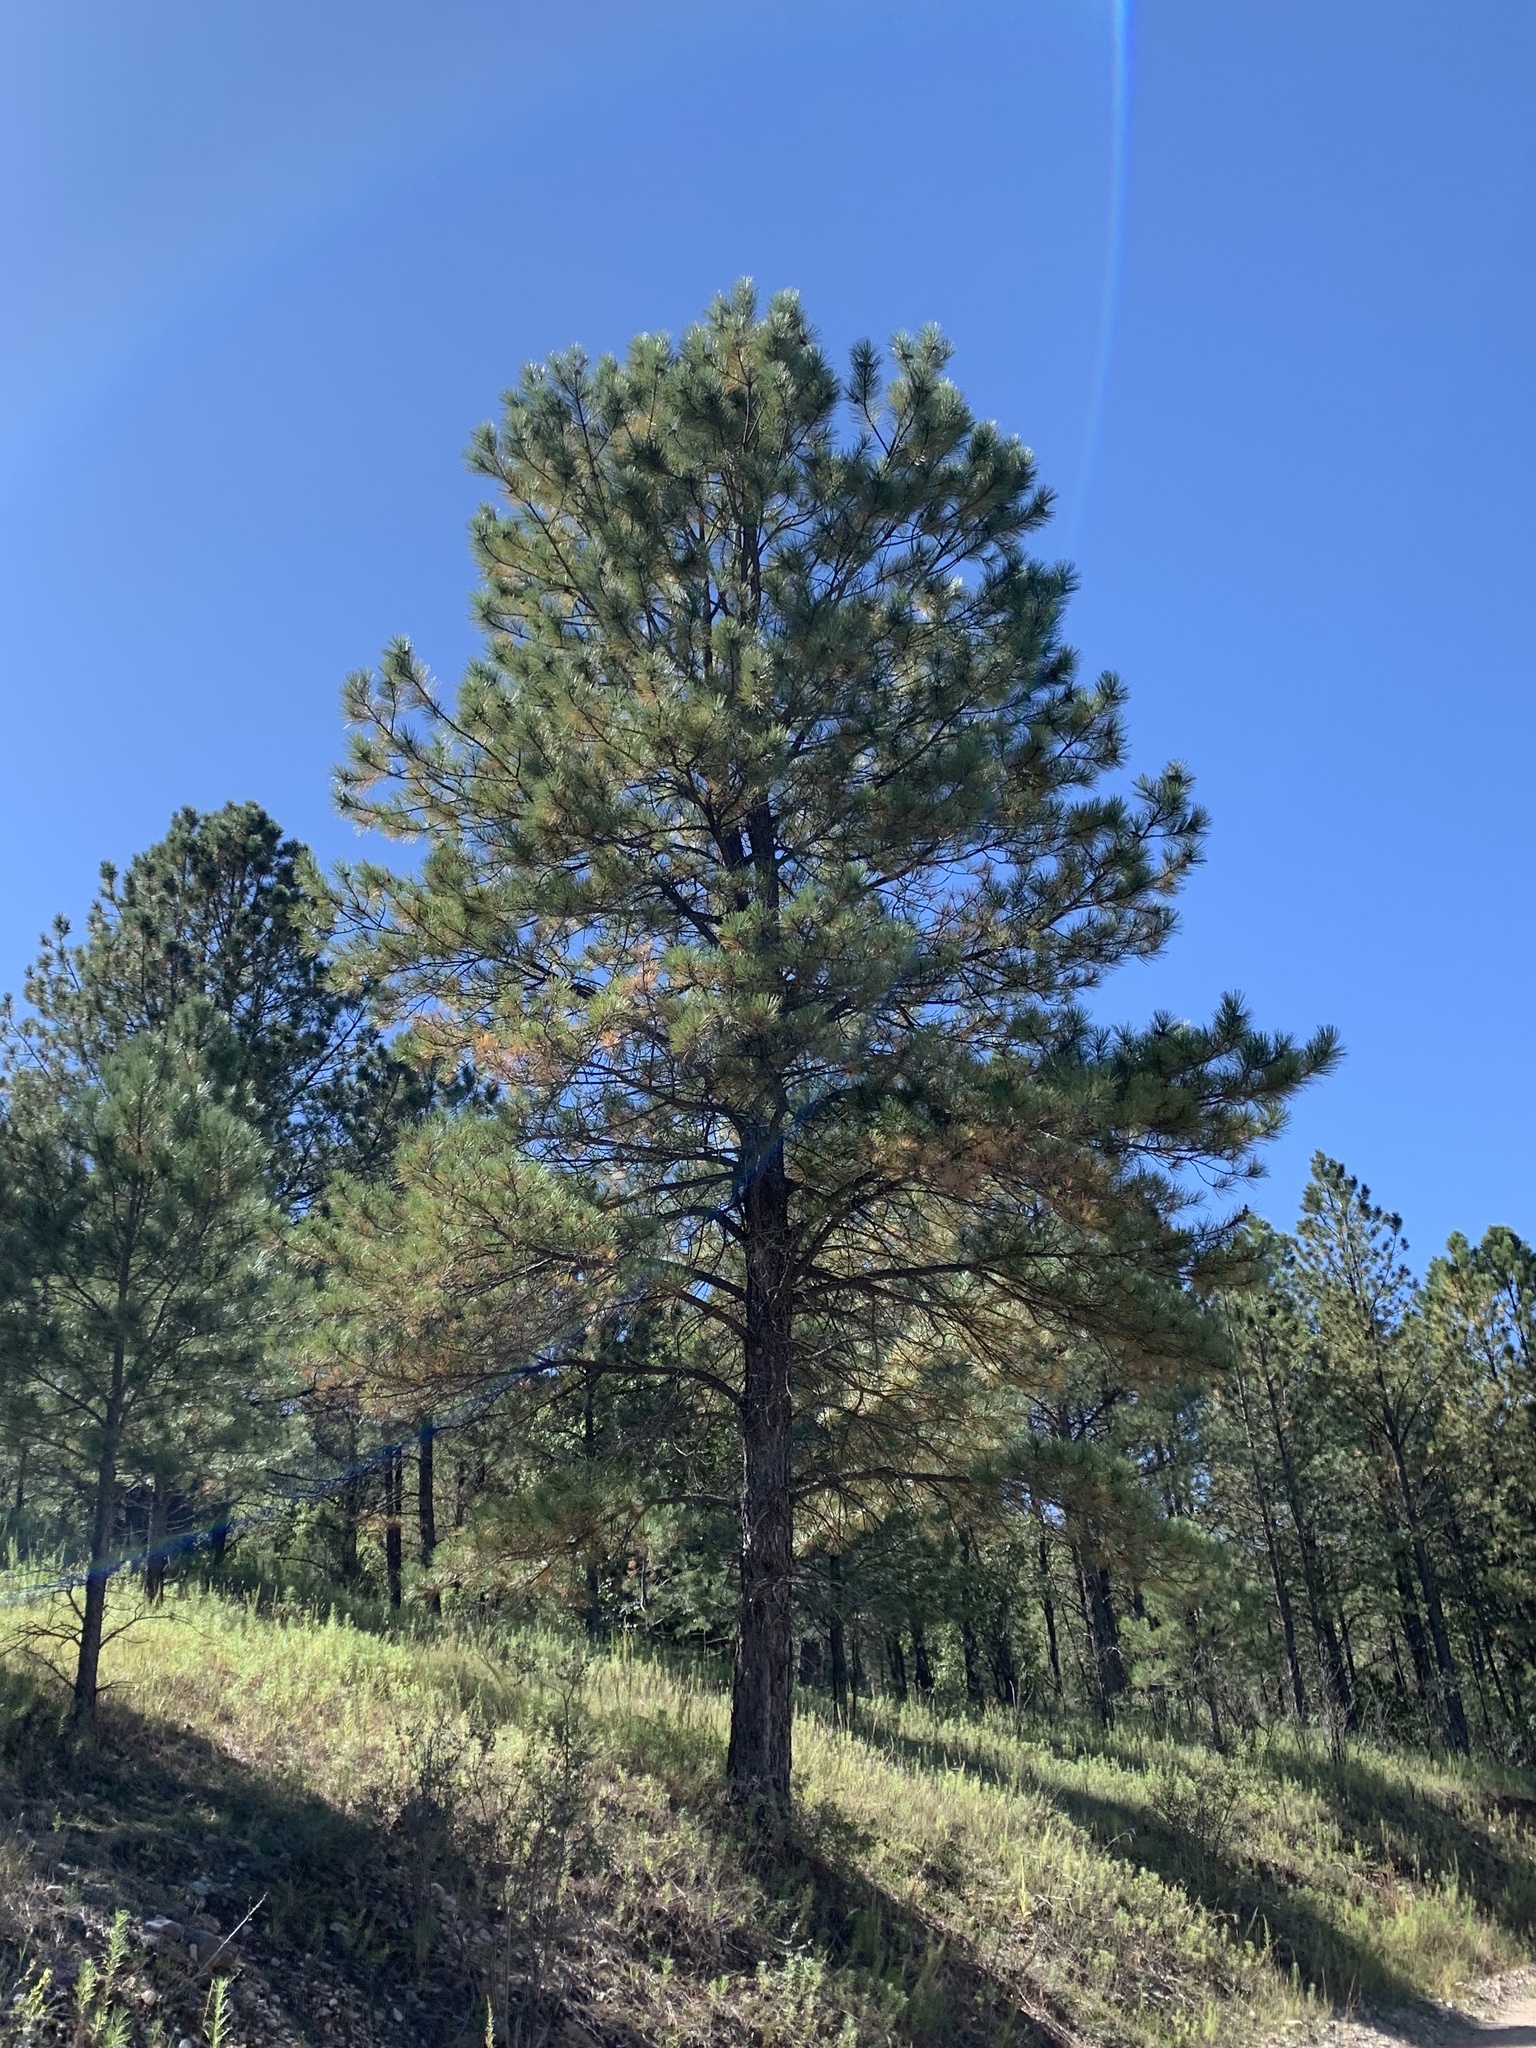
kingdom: Plantae
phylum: Tracheophyta
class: Pinopsida
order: Pinales
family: Pinaceae
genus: Pinus
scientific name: Pinus ponderosa
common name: Western yellow-pine
